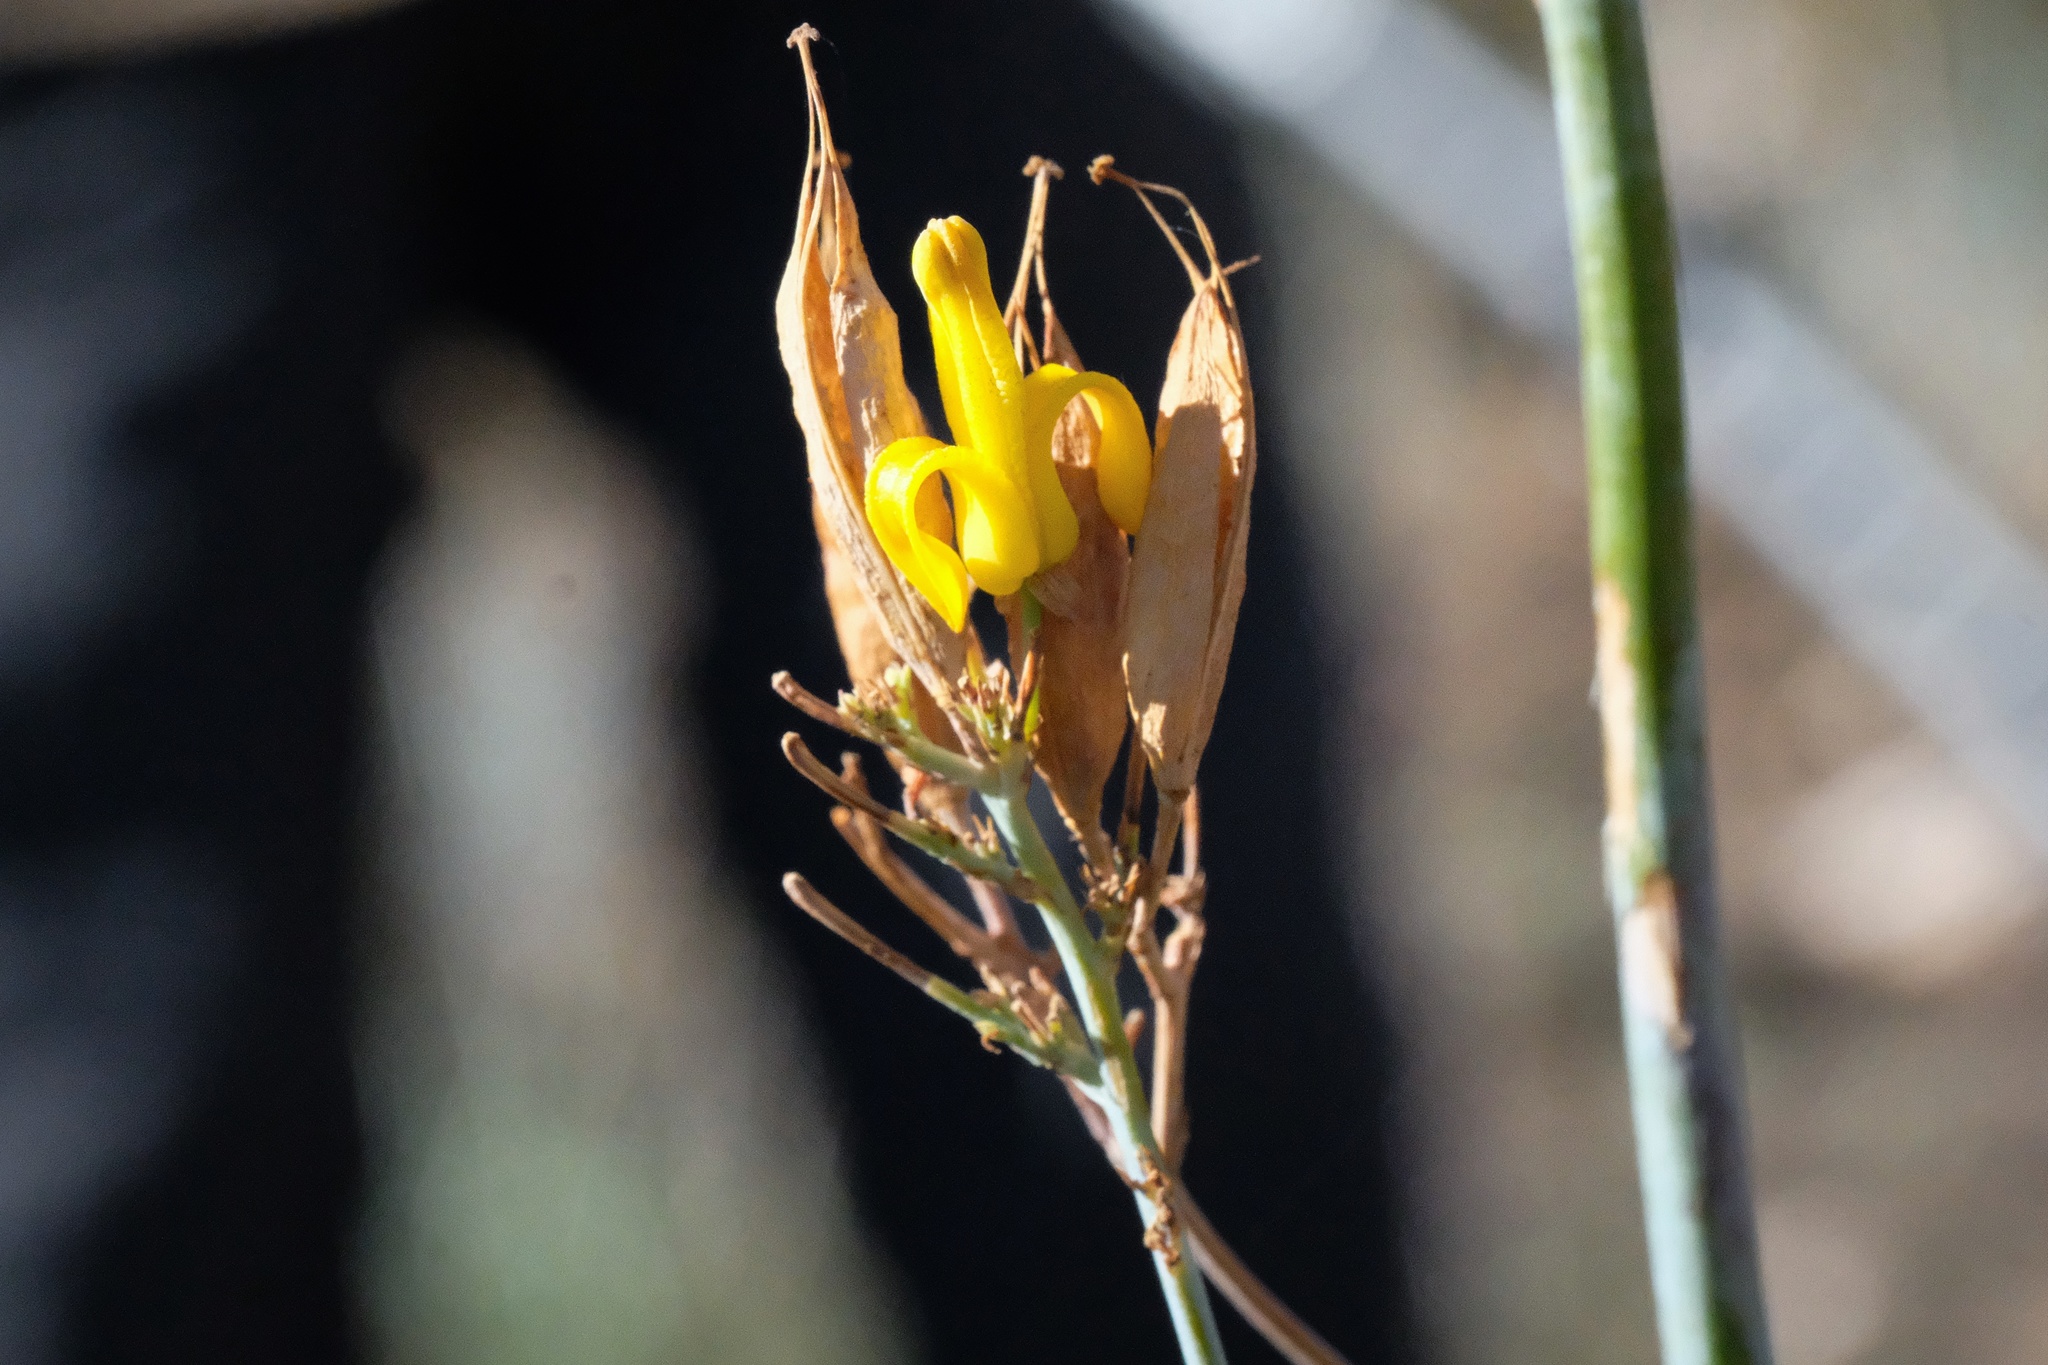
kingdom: Plantae
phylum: Tracheophyta
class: Magnoliopsida
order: Ranunculales
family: Papaveraceae
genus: Ehrendorferia
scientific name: Ehrendorferia chrysantha
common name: Golden eardrops
